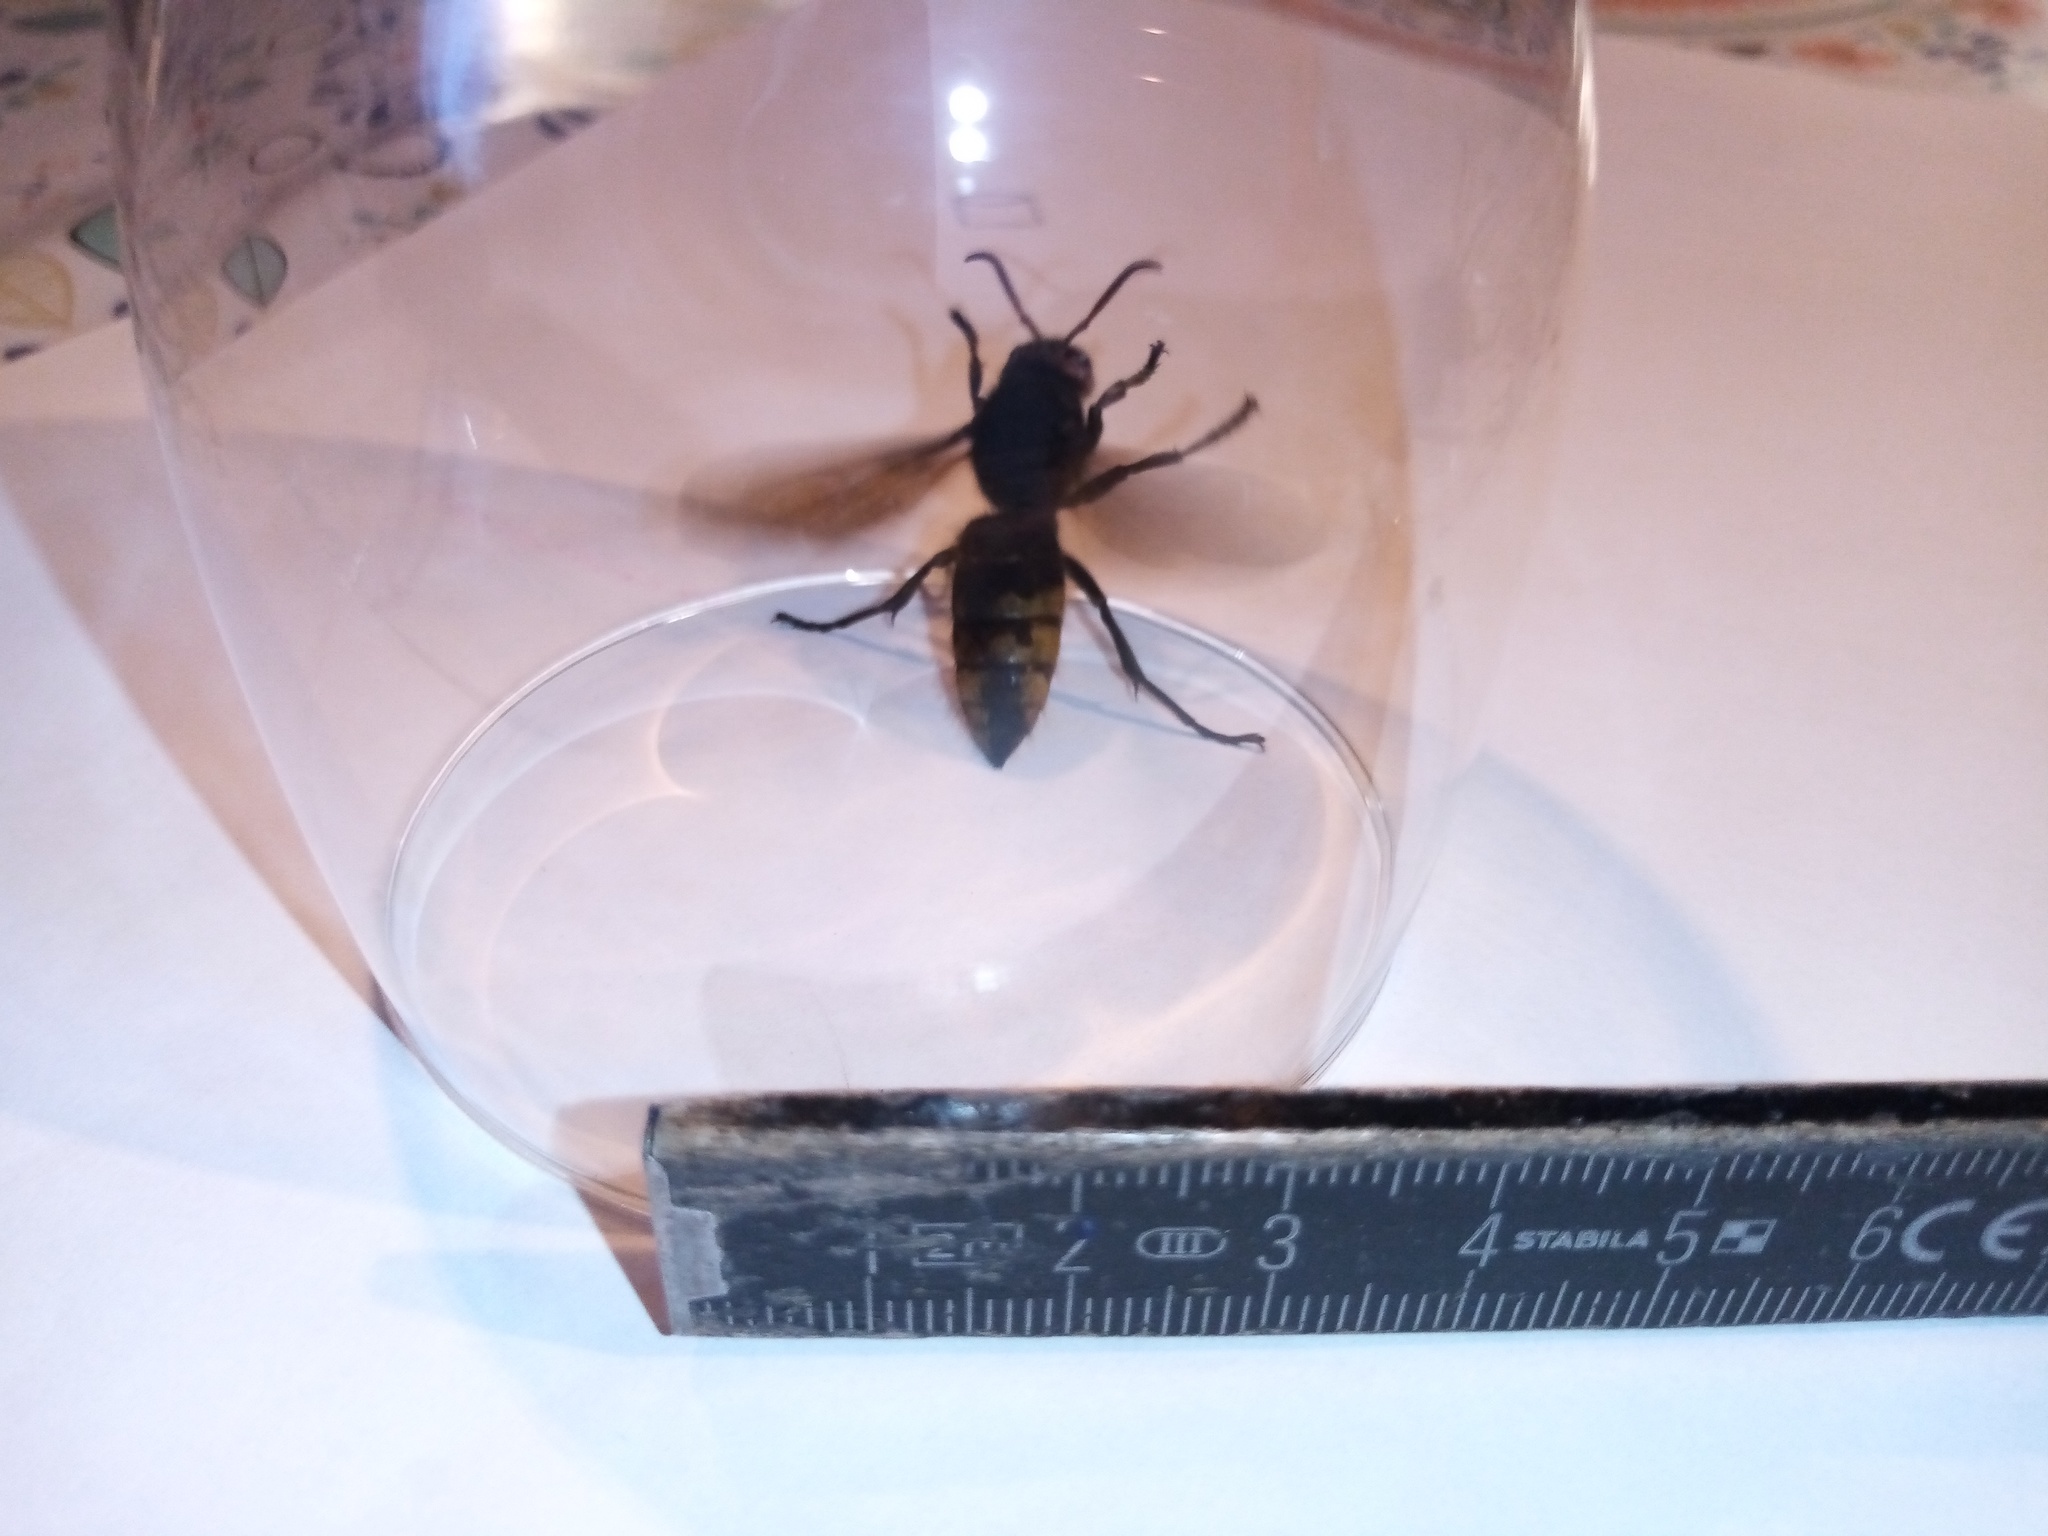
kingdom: Animalia
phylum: Arthropoda
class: Insecta
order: Hymenoptera
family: Vespidae
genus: Vespa
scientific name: Vespa crabro
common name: Hornet
